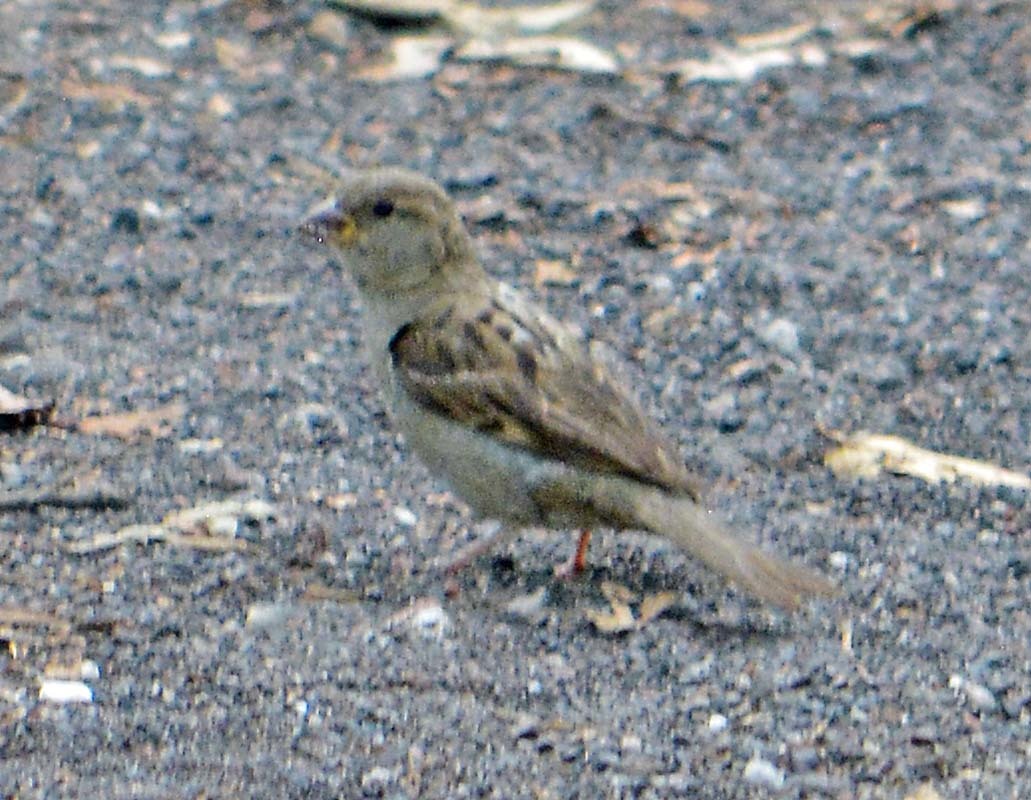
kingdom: Animalia
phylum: Chordata
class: Aves
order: Passeriformes
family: Passeridae
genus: Passer
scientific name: Passer domesticus
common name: House sparrow
